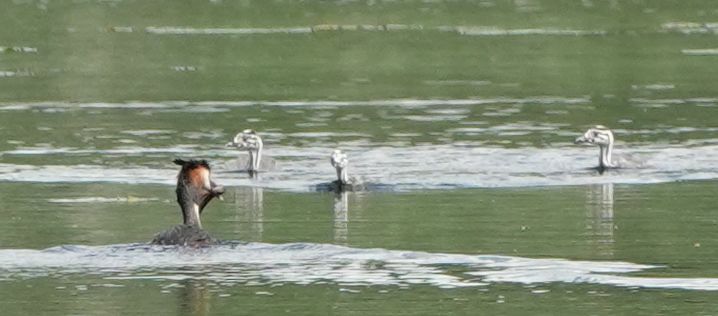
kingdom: Animalia
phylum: Chordata
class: Aves
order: Podicipediformes
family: Podicipedidae
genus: Podiceps
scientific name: Podiceps cristatus
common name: Great crested grebe
